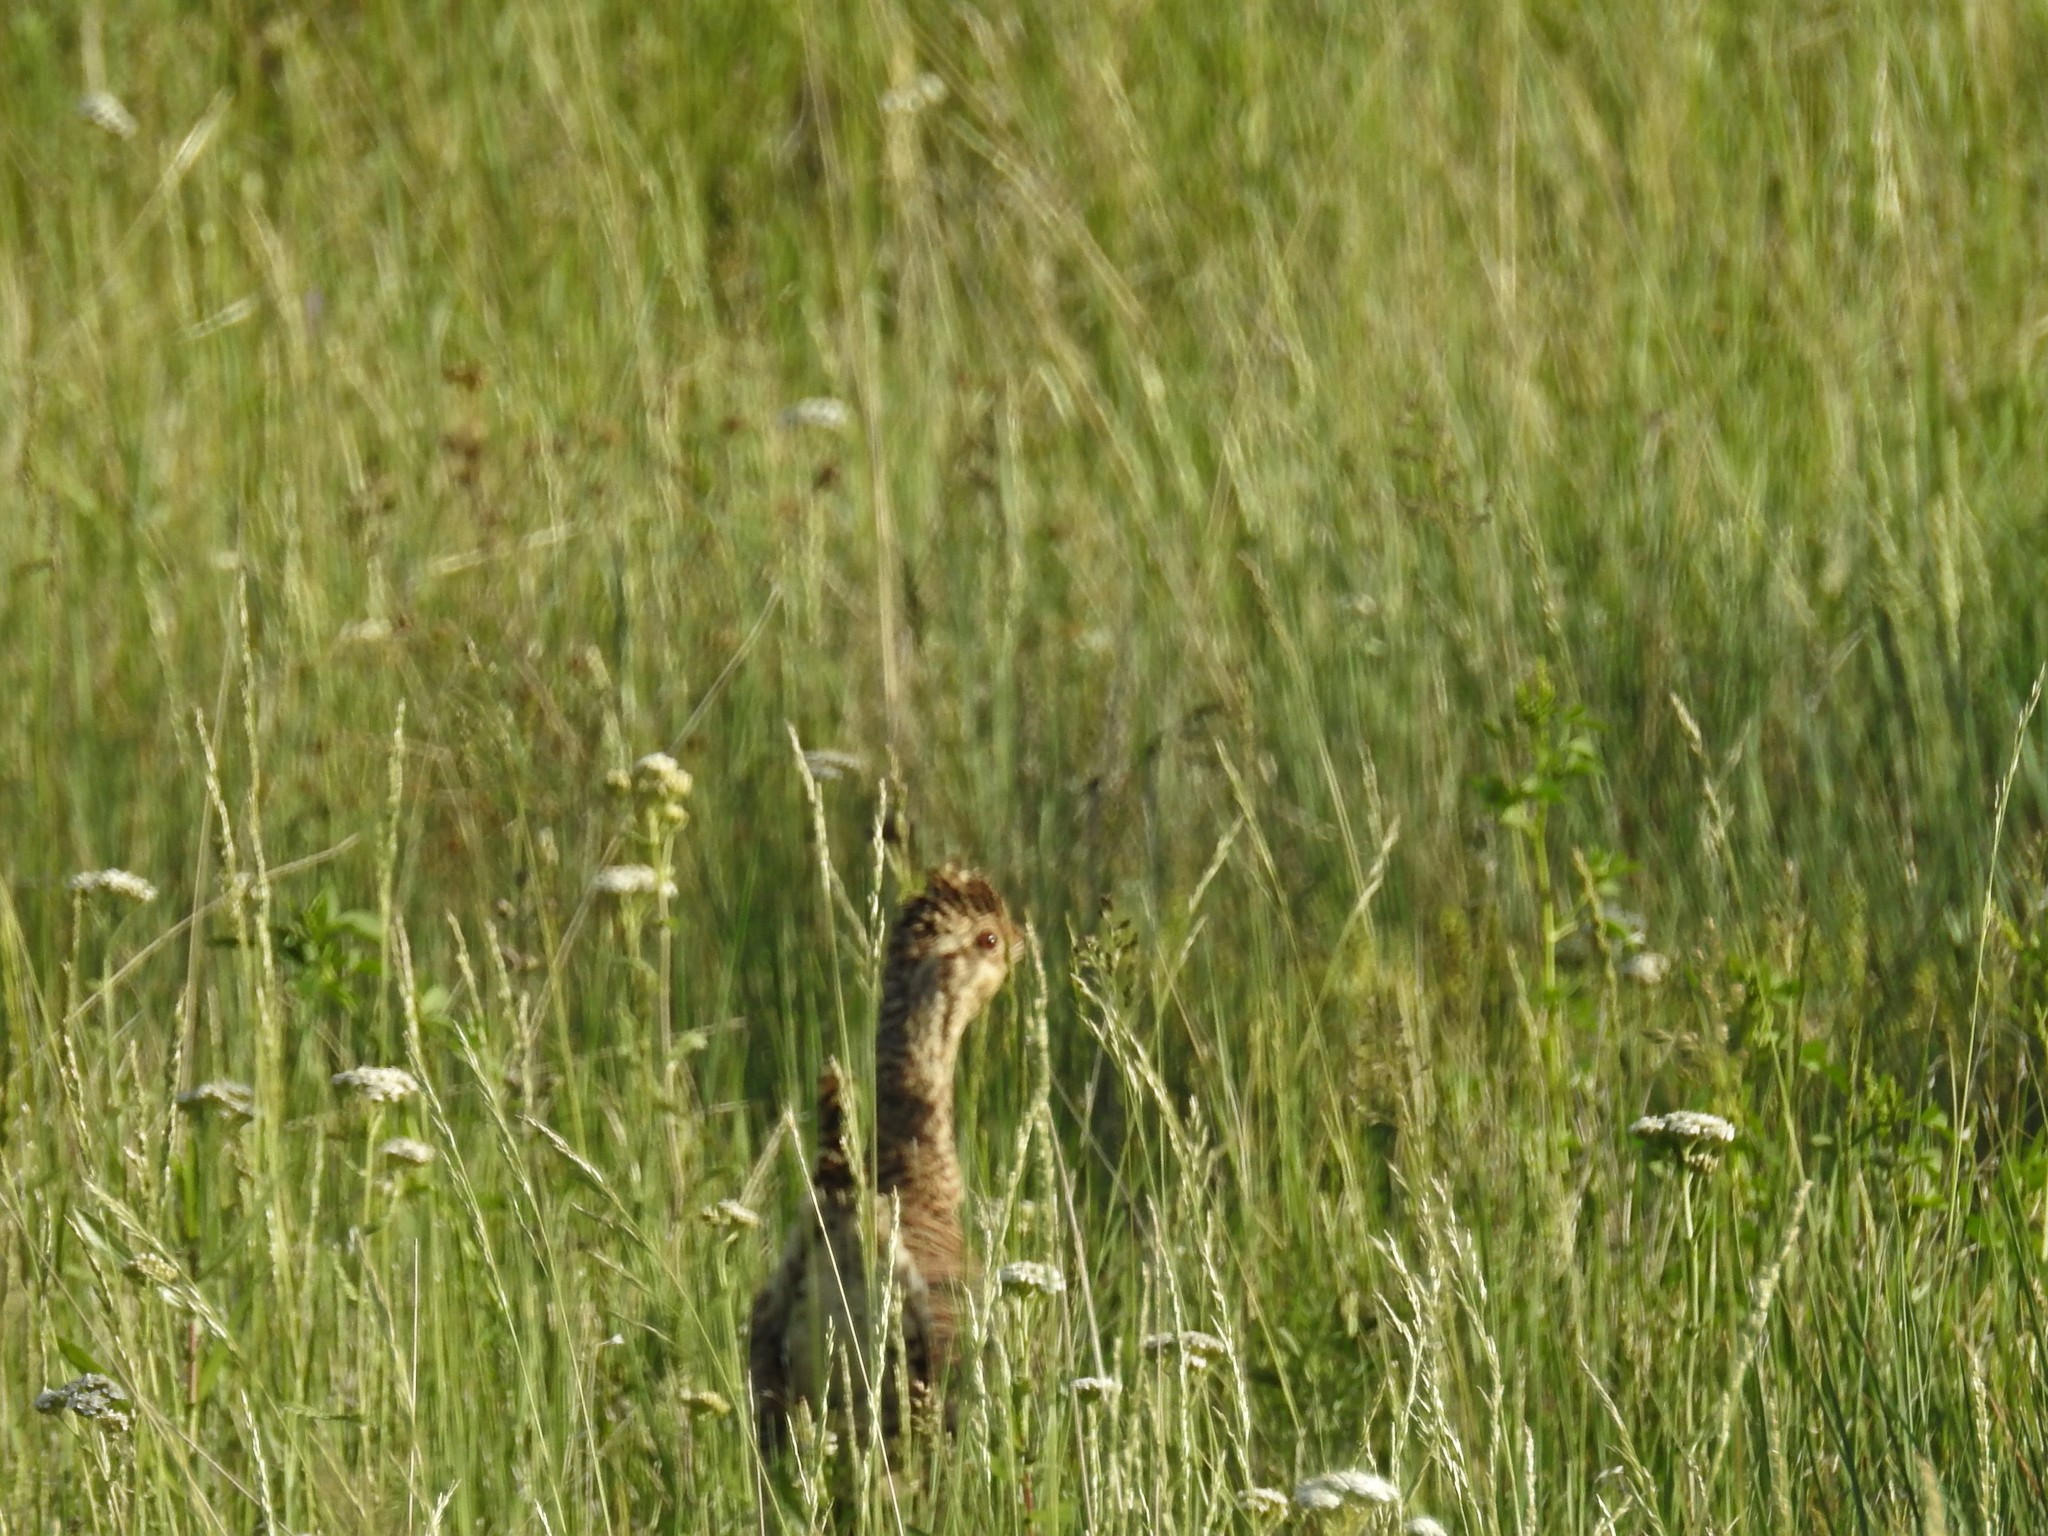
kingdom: Animalia
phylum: Chordata
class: Aves
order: Galliformes
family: Phasianidae
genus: Tympanuchus
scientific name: Tympanuchus phasianellus
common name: Sharp-tailed grouse
